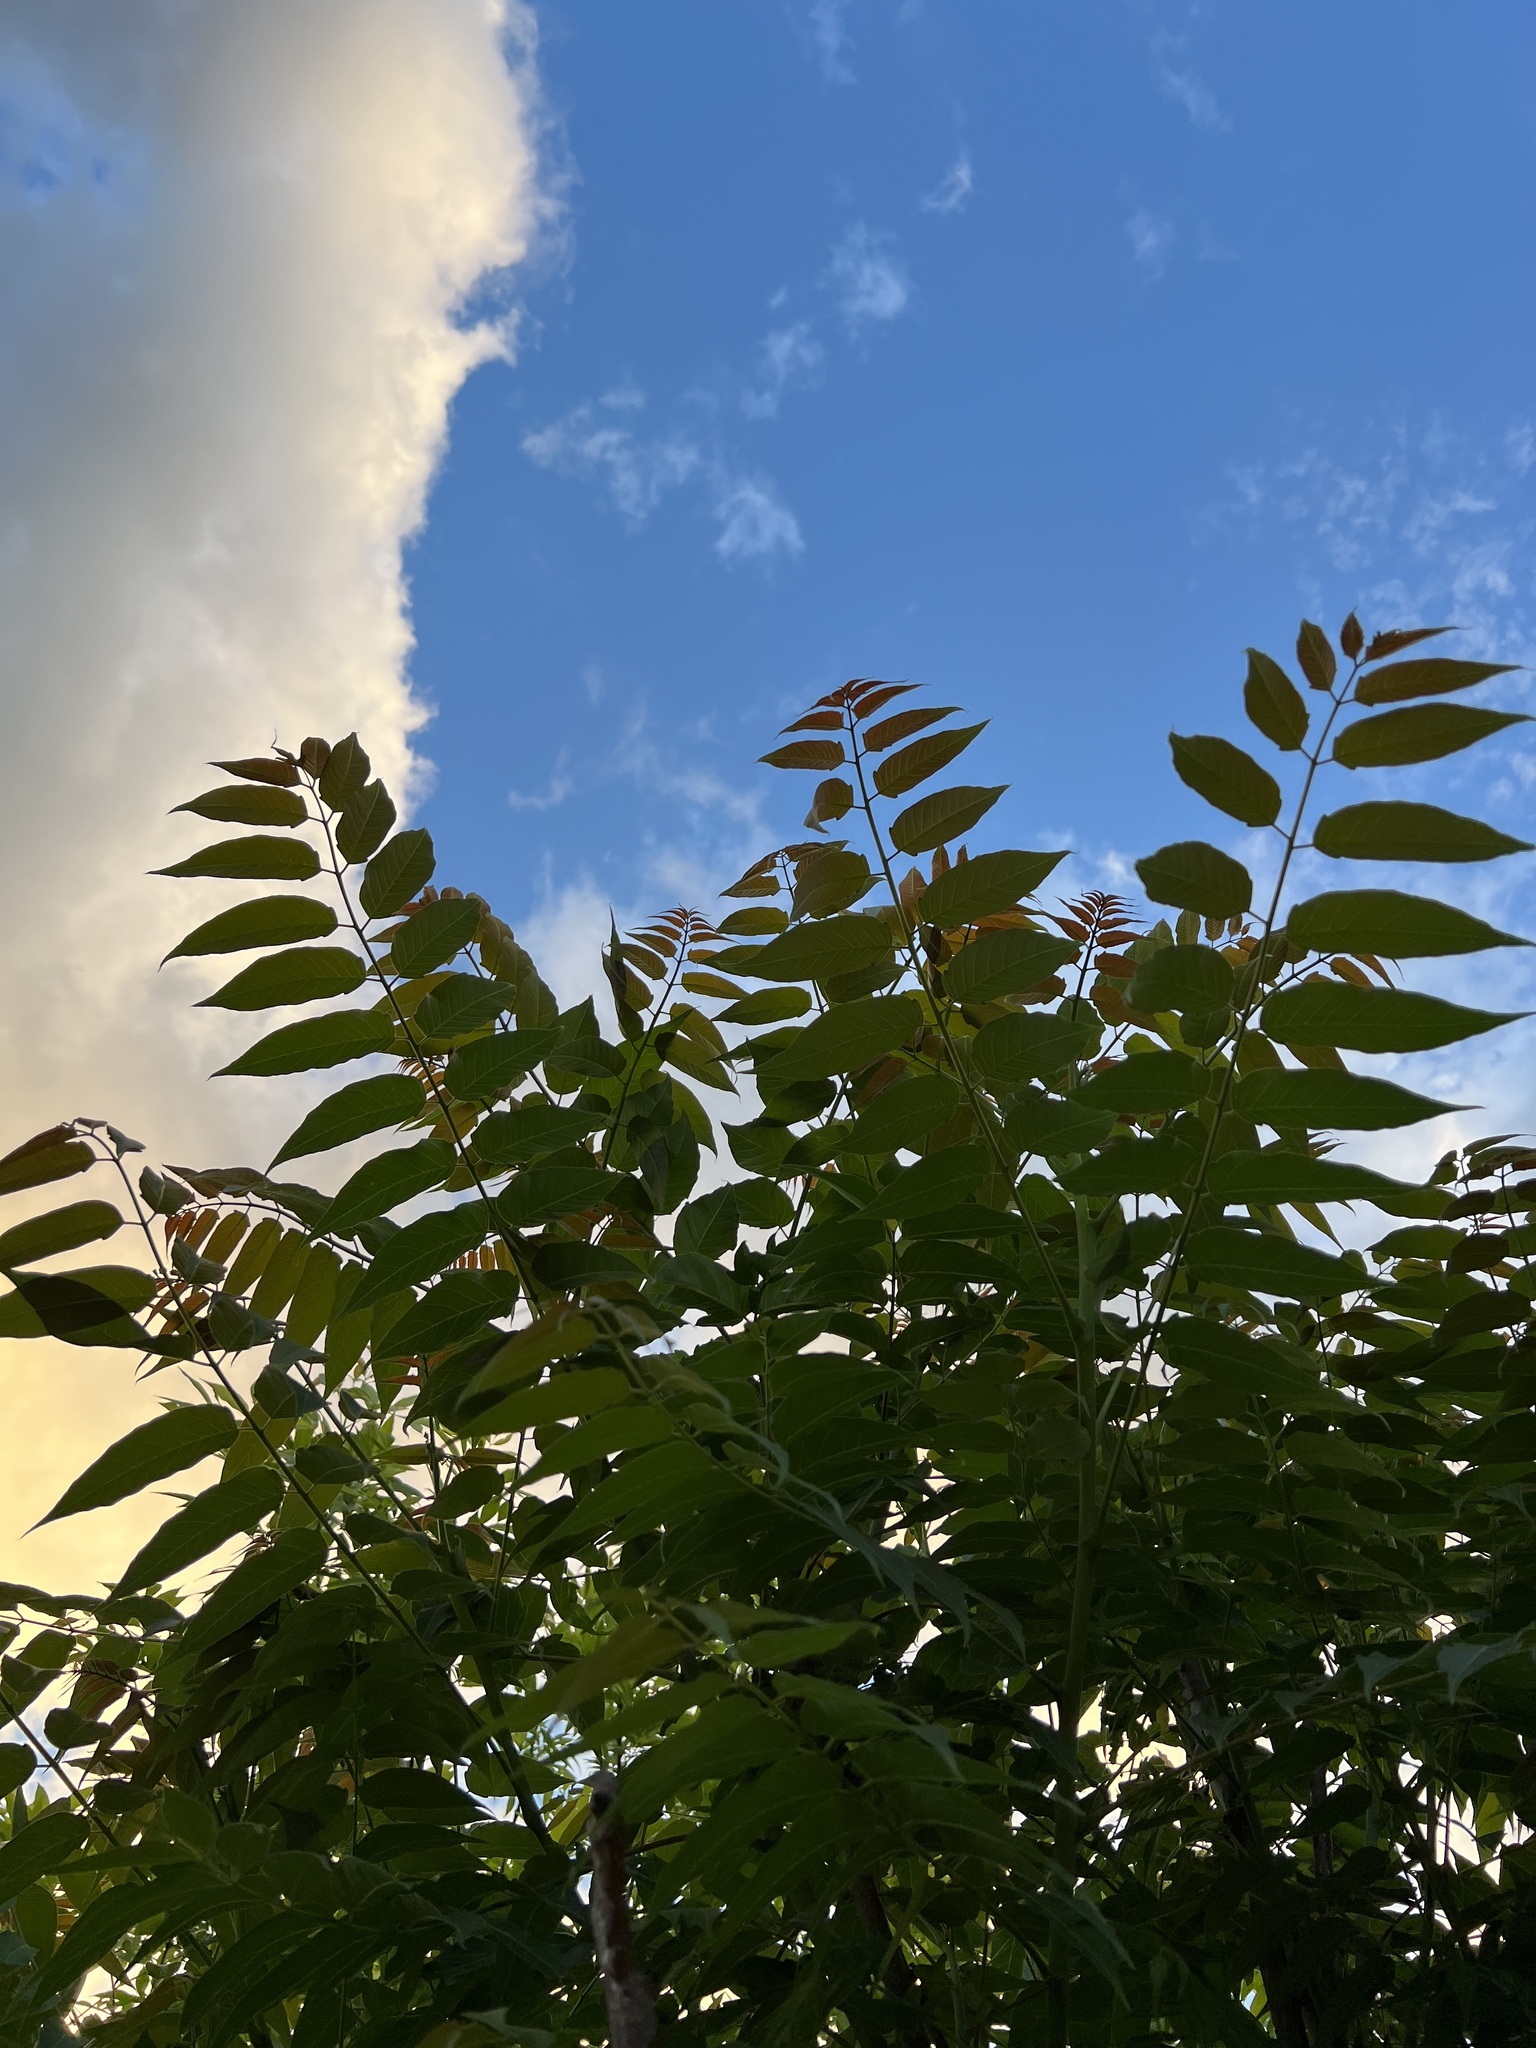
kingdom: Plantae
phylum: Tracheophyta
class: Magnoliopsida
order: Sapindales
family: Simaroubaceae
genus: Ailanthus
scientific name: Ailanthus altissima
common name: Tree-of-heaven
